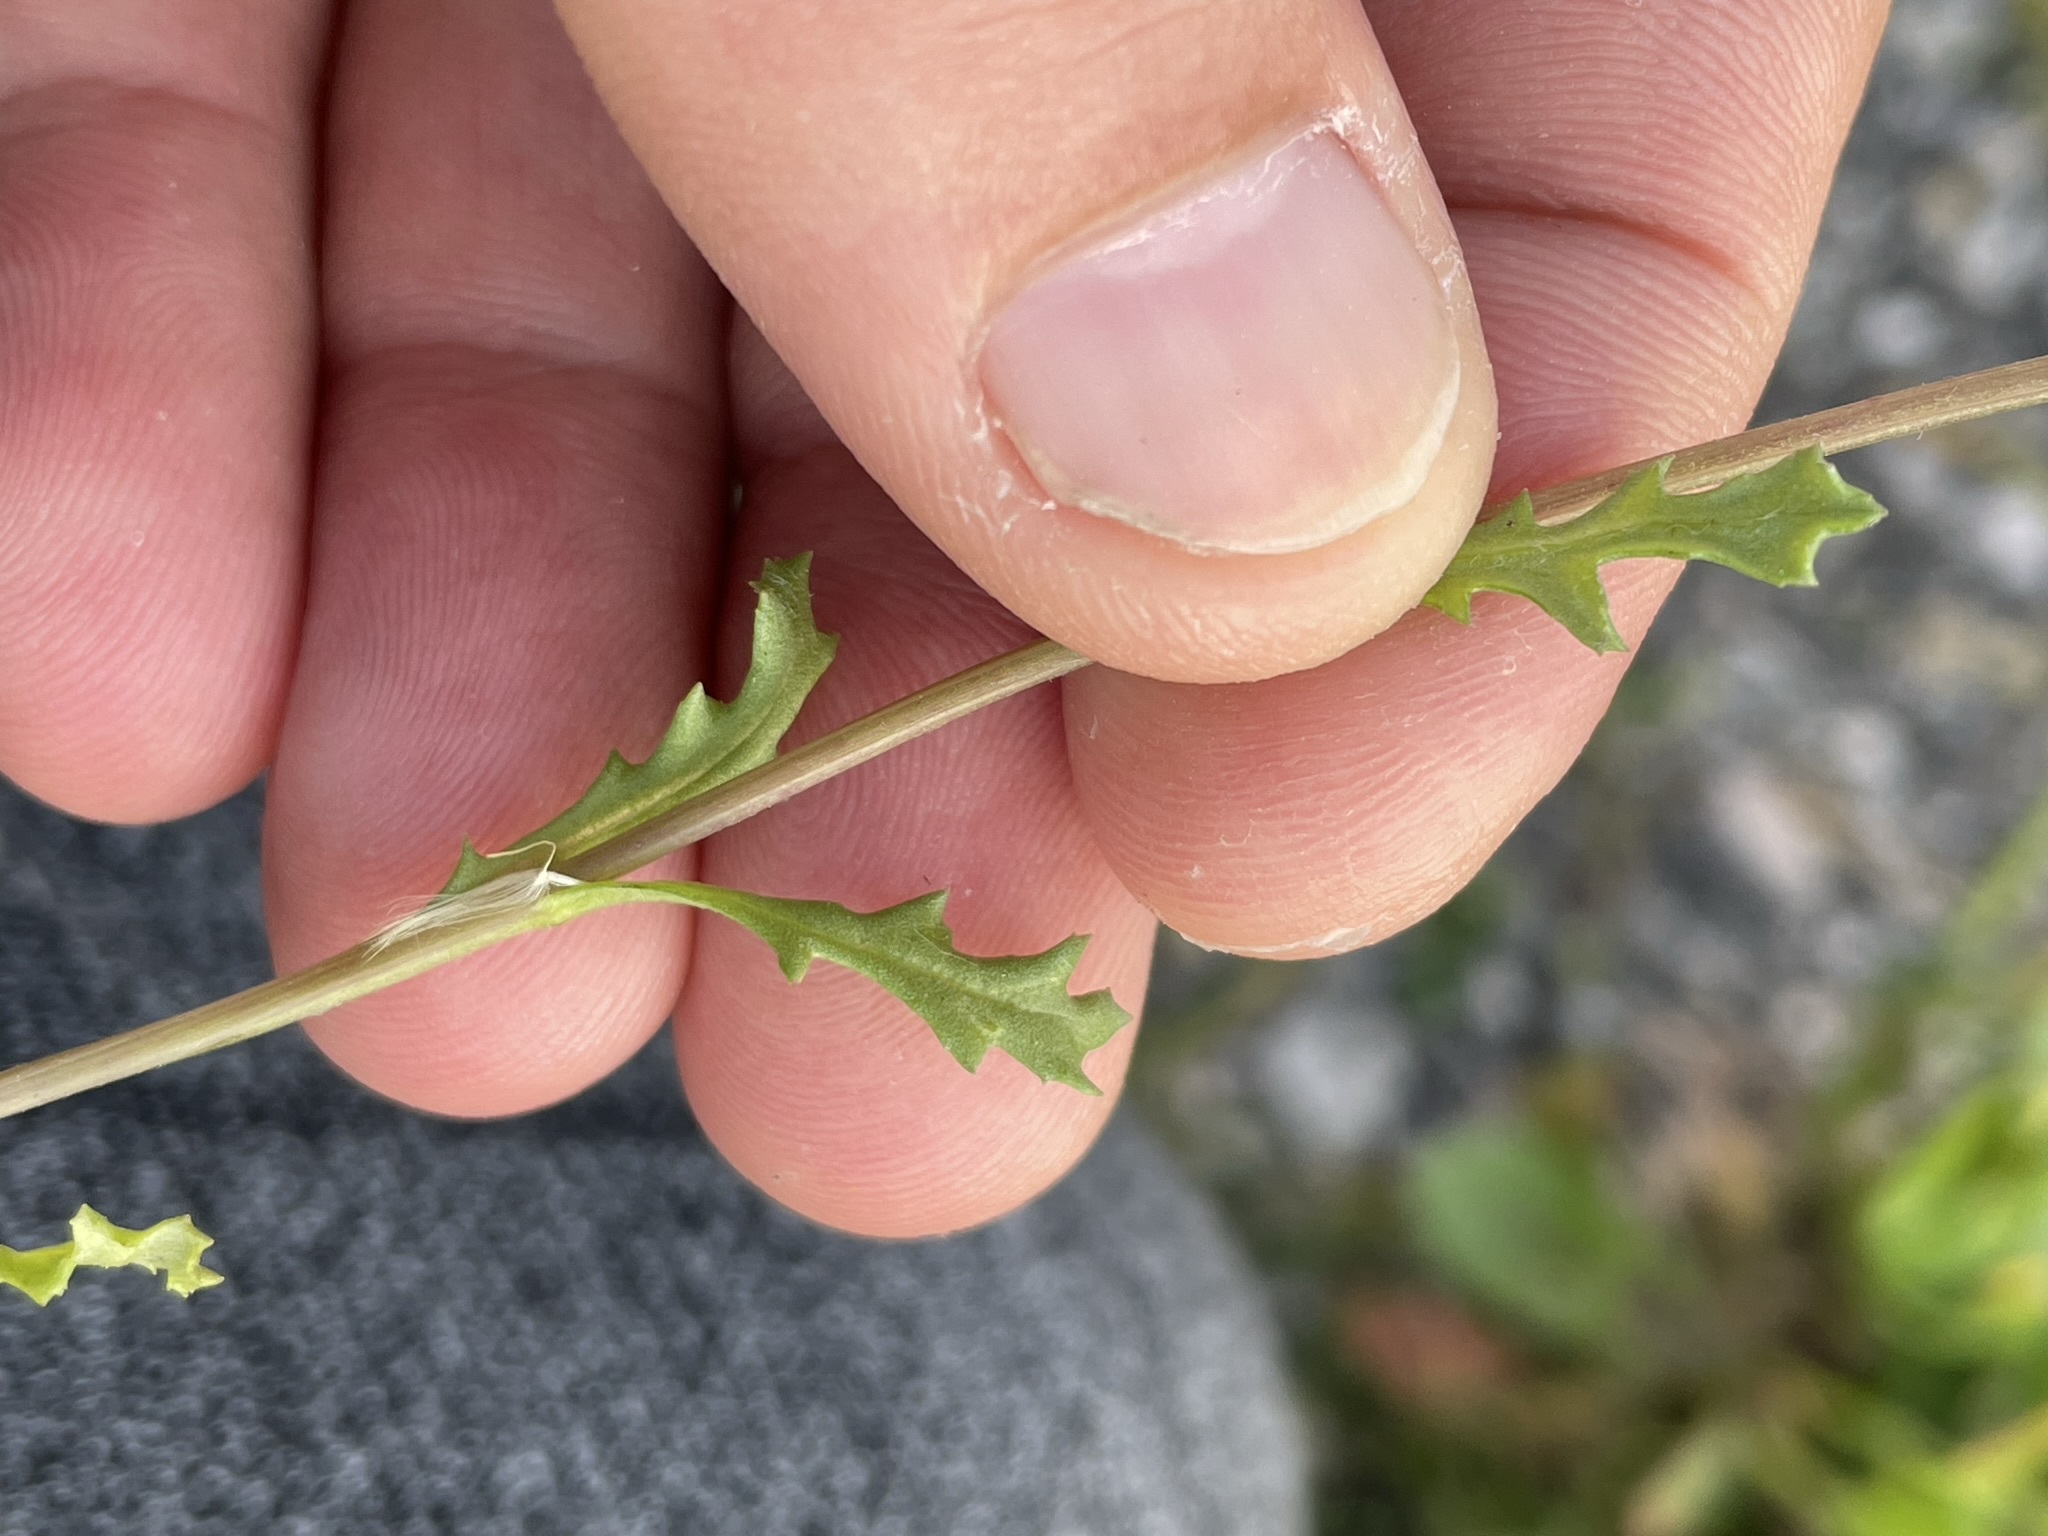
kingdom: Plantae
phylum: Tracheophyta
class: Magnoliopsida
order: Asterales
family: Asteraceae
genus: Senecio
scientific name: Senecio vulgaris
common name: Old-man-in-the-spring
